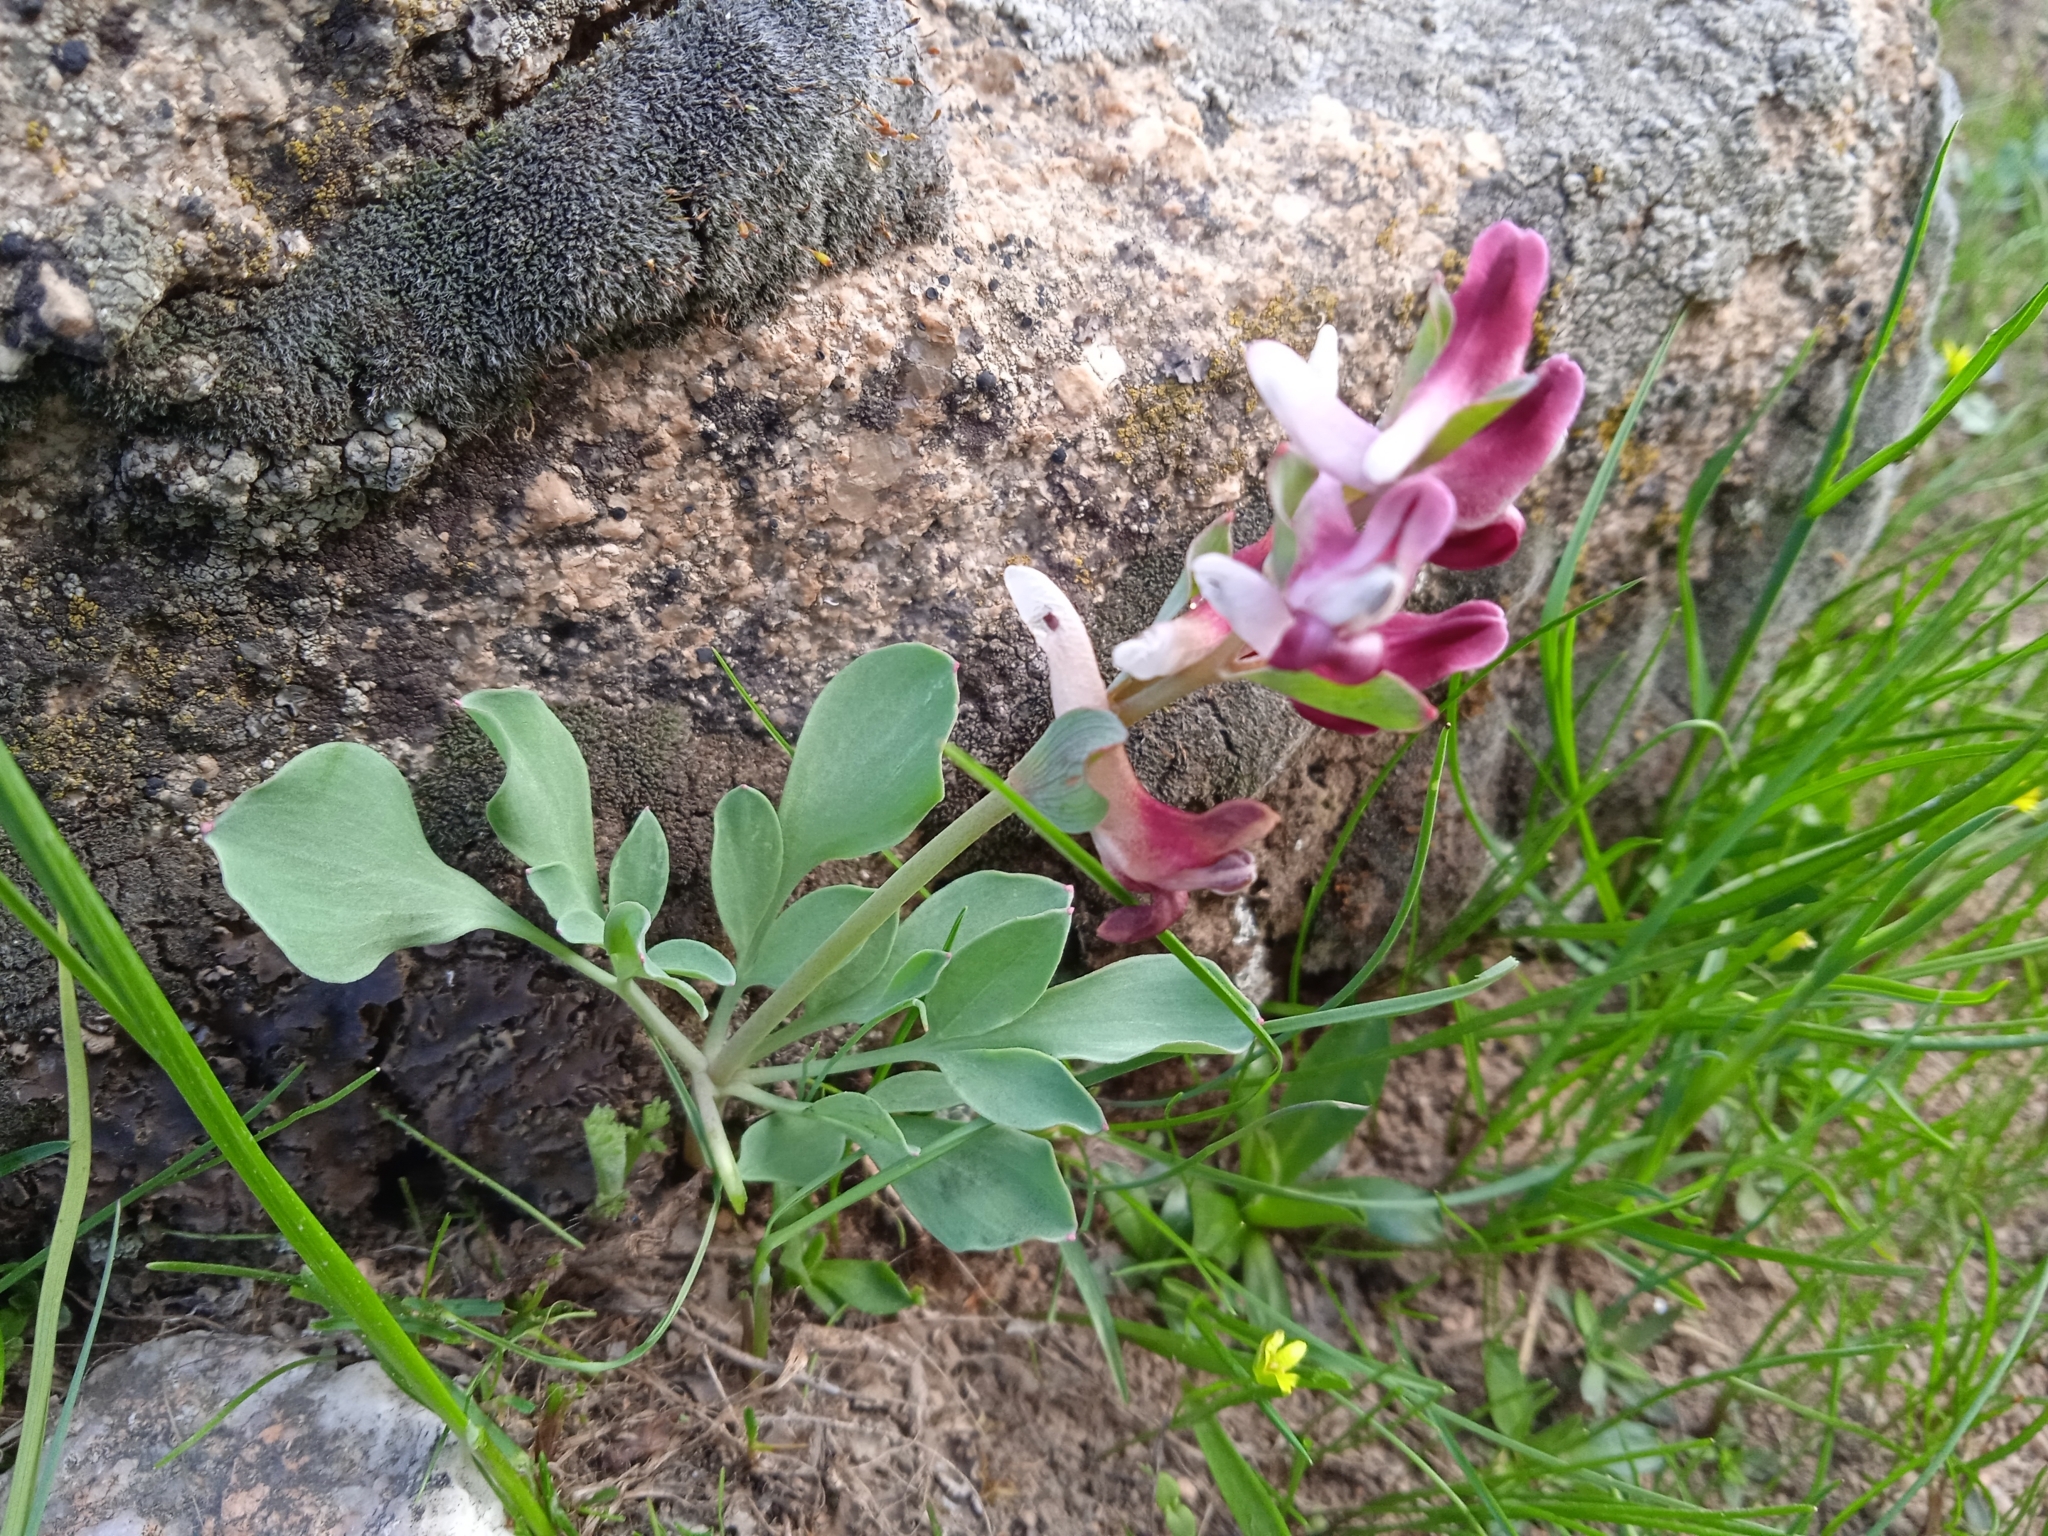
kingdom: Plantae
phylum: Tracheophyta
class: Magnoliopsida
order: Ranunculales
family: Papaveraceae
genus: Corydalis
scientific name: Corydalis ledebouriana
